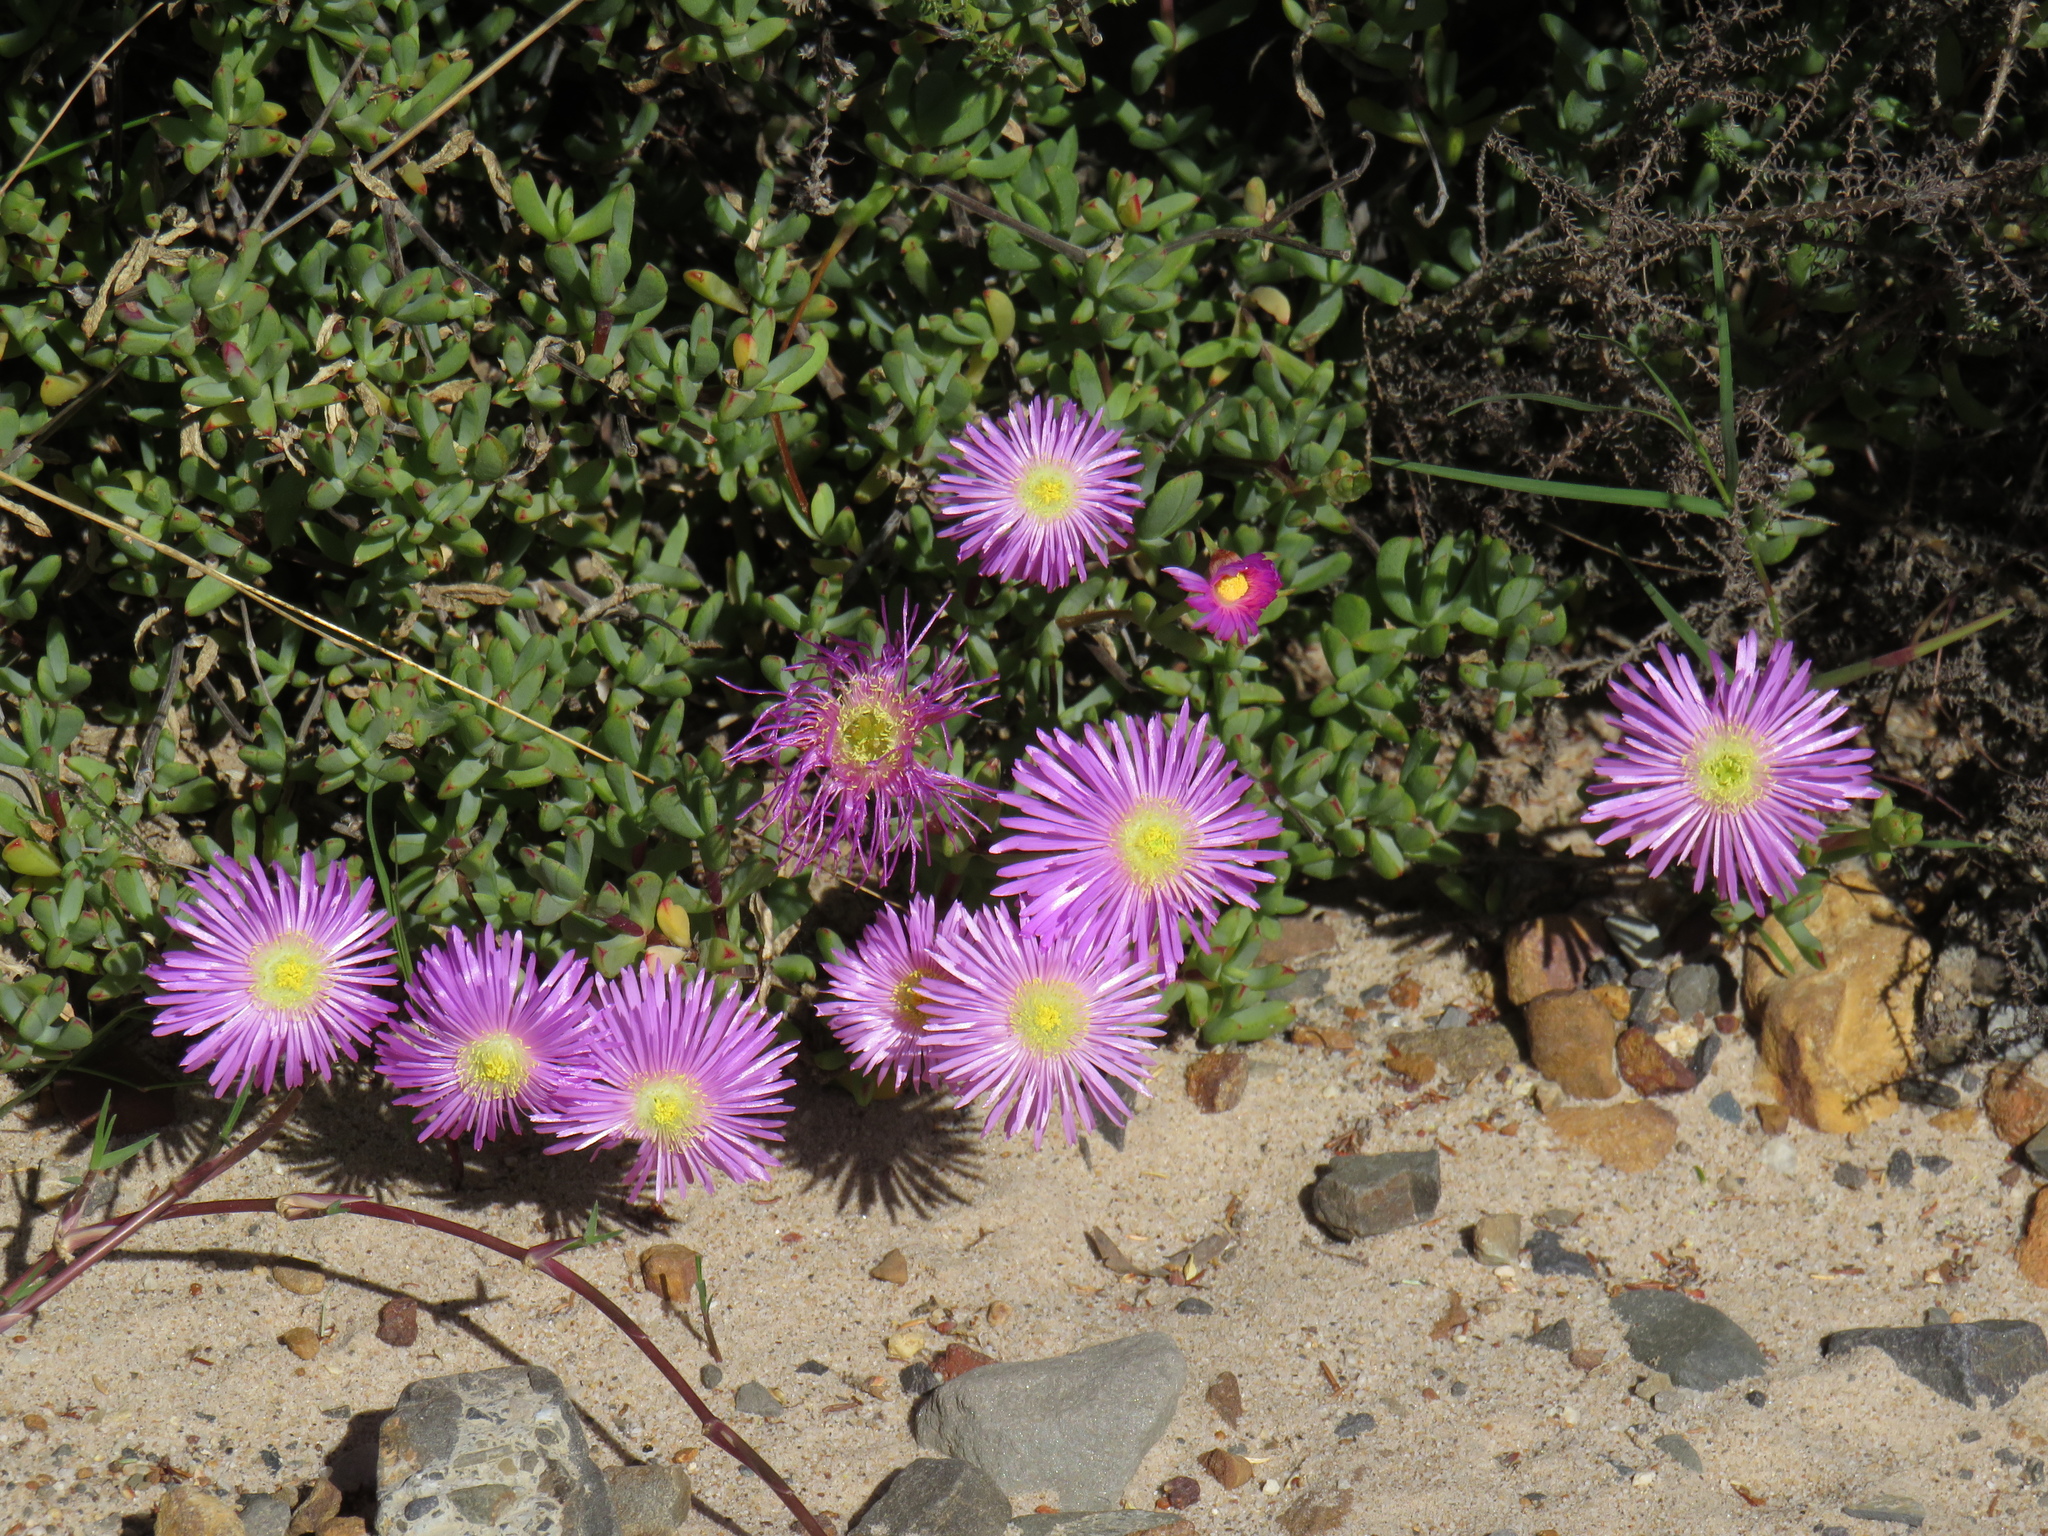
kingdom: Plantae
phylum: Tracheophyta
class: Magnoliopsida
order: Caryophyllales
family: Aizoaceae
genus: Oscularia
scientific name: Oscularia falciformis
